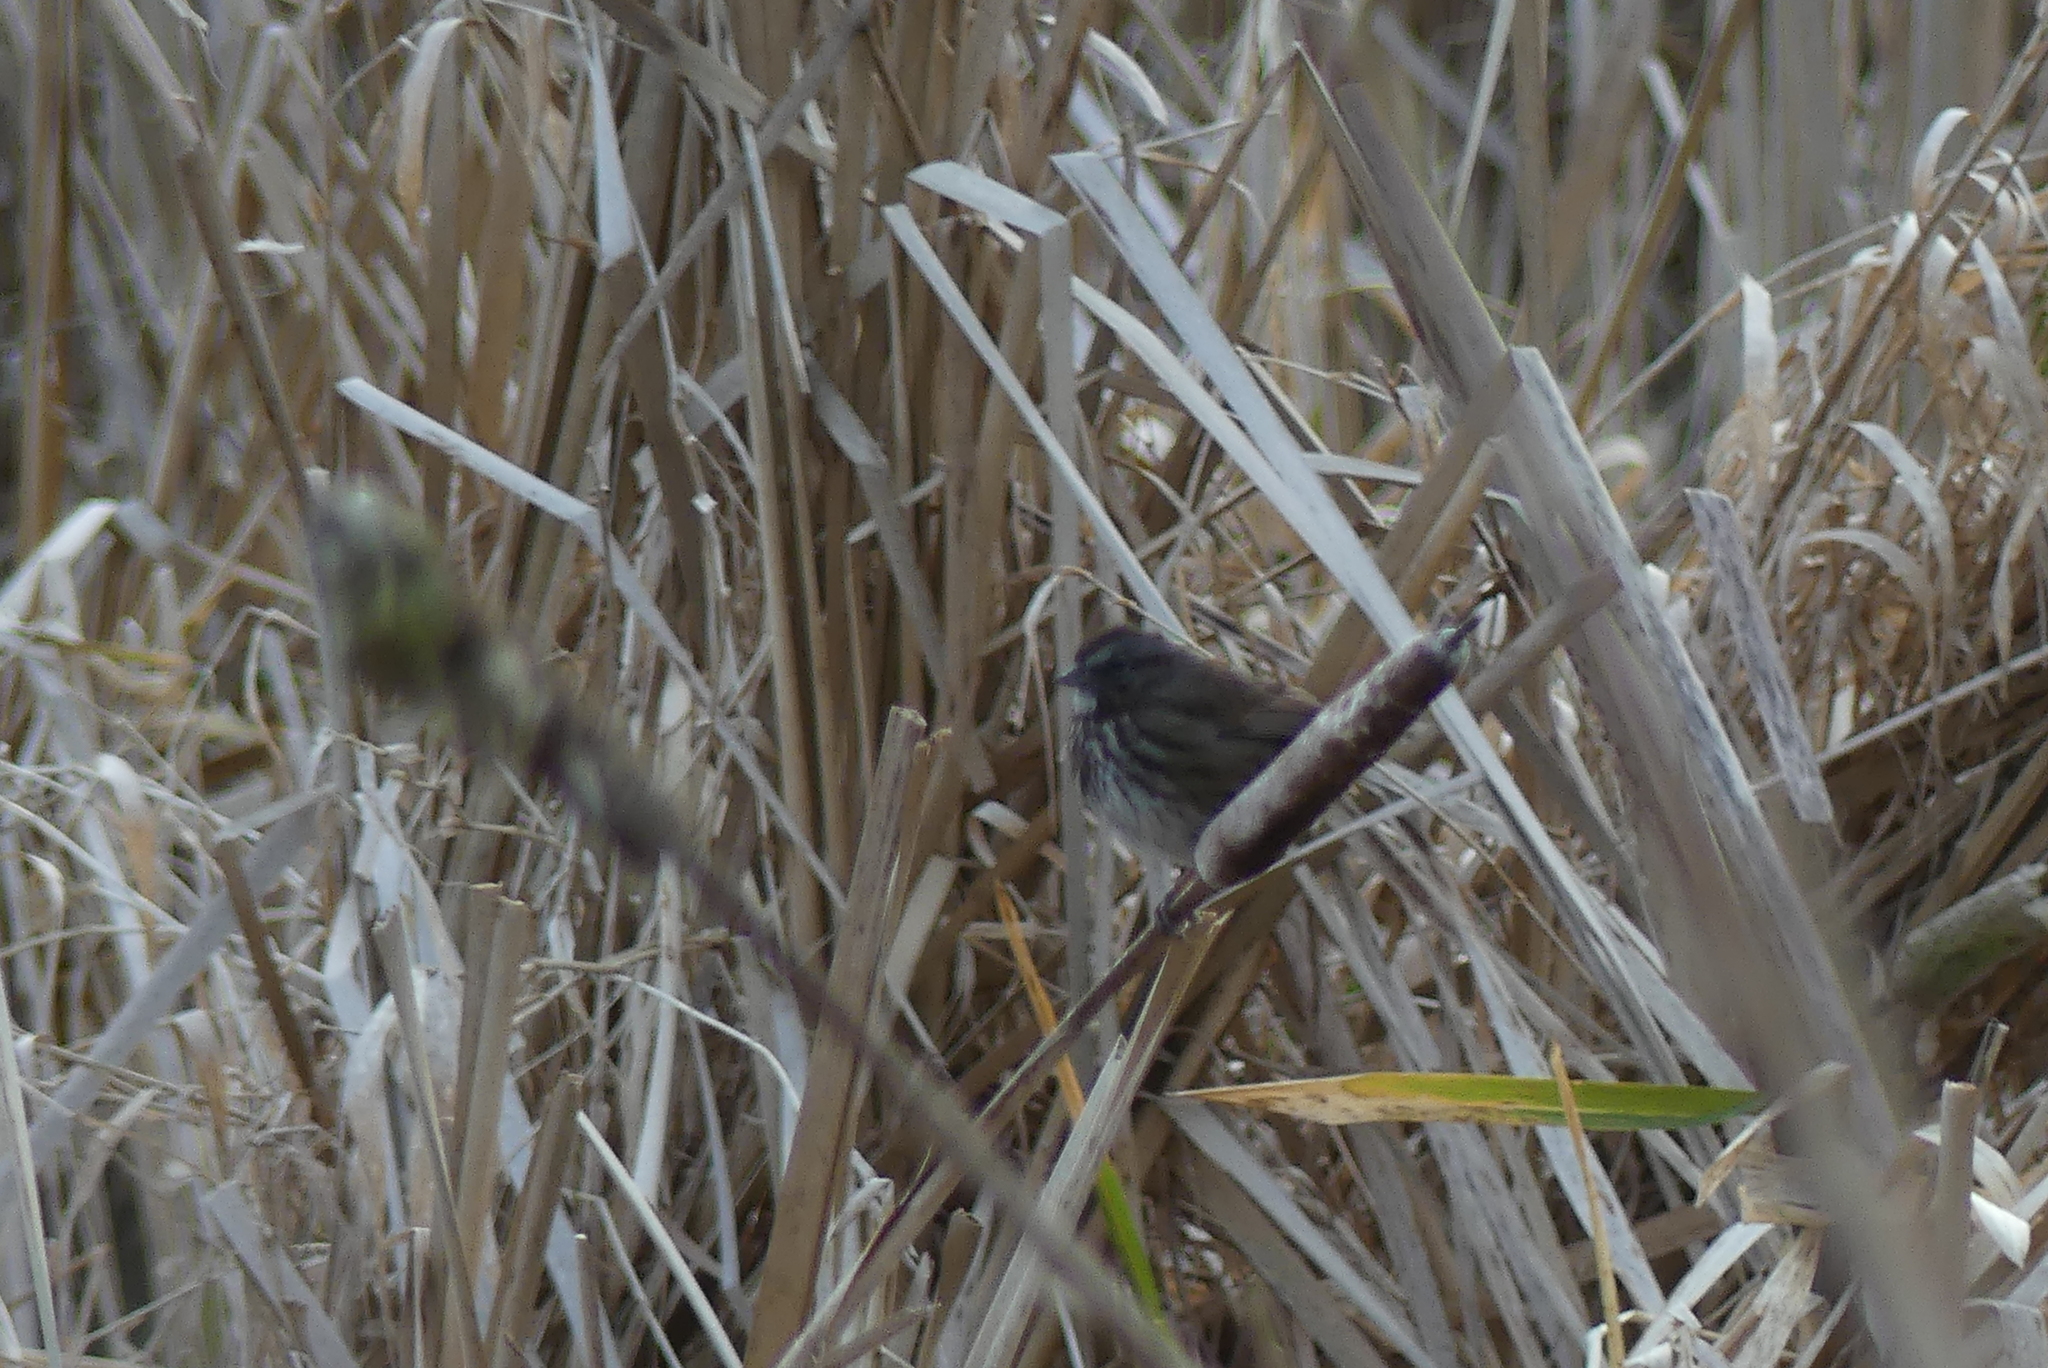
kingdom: Animalia
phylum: Chordata
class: Aves
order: Passeriformes
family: Passerellidae
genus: Melospiza
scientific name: Melospiza melodia
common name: Song sparrow
